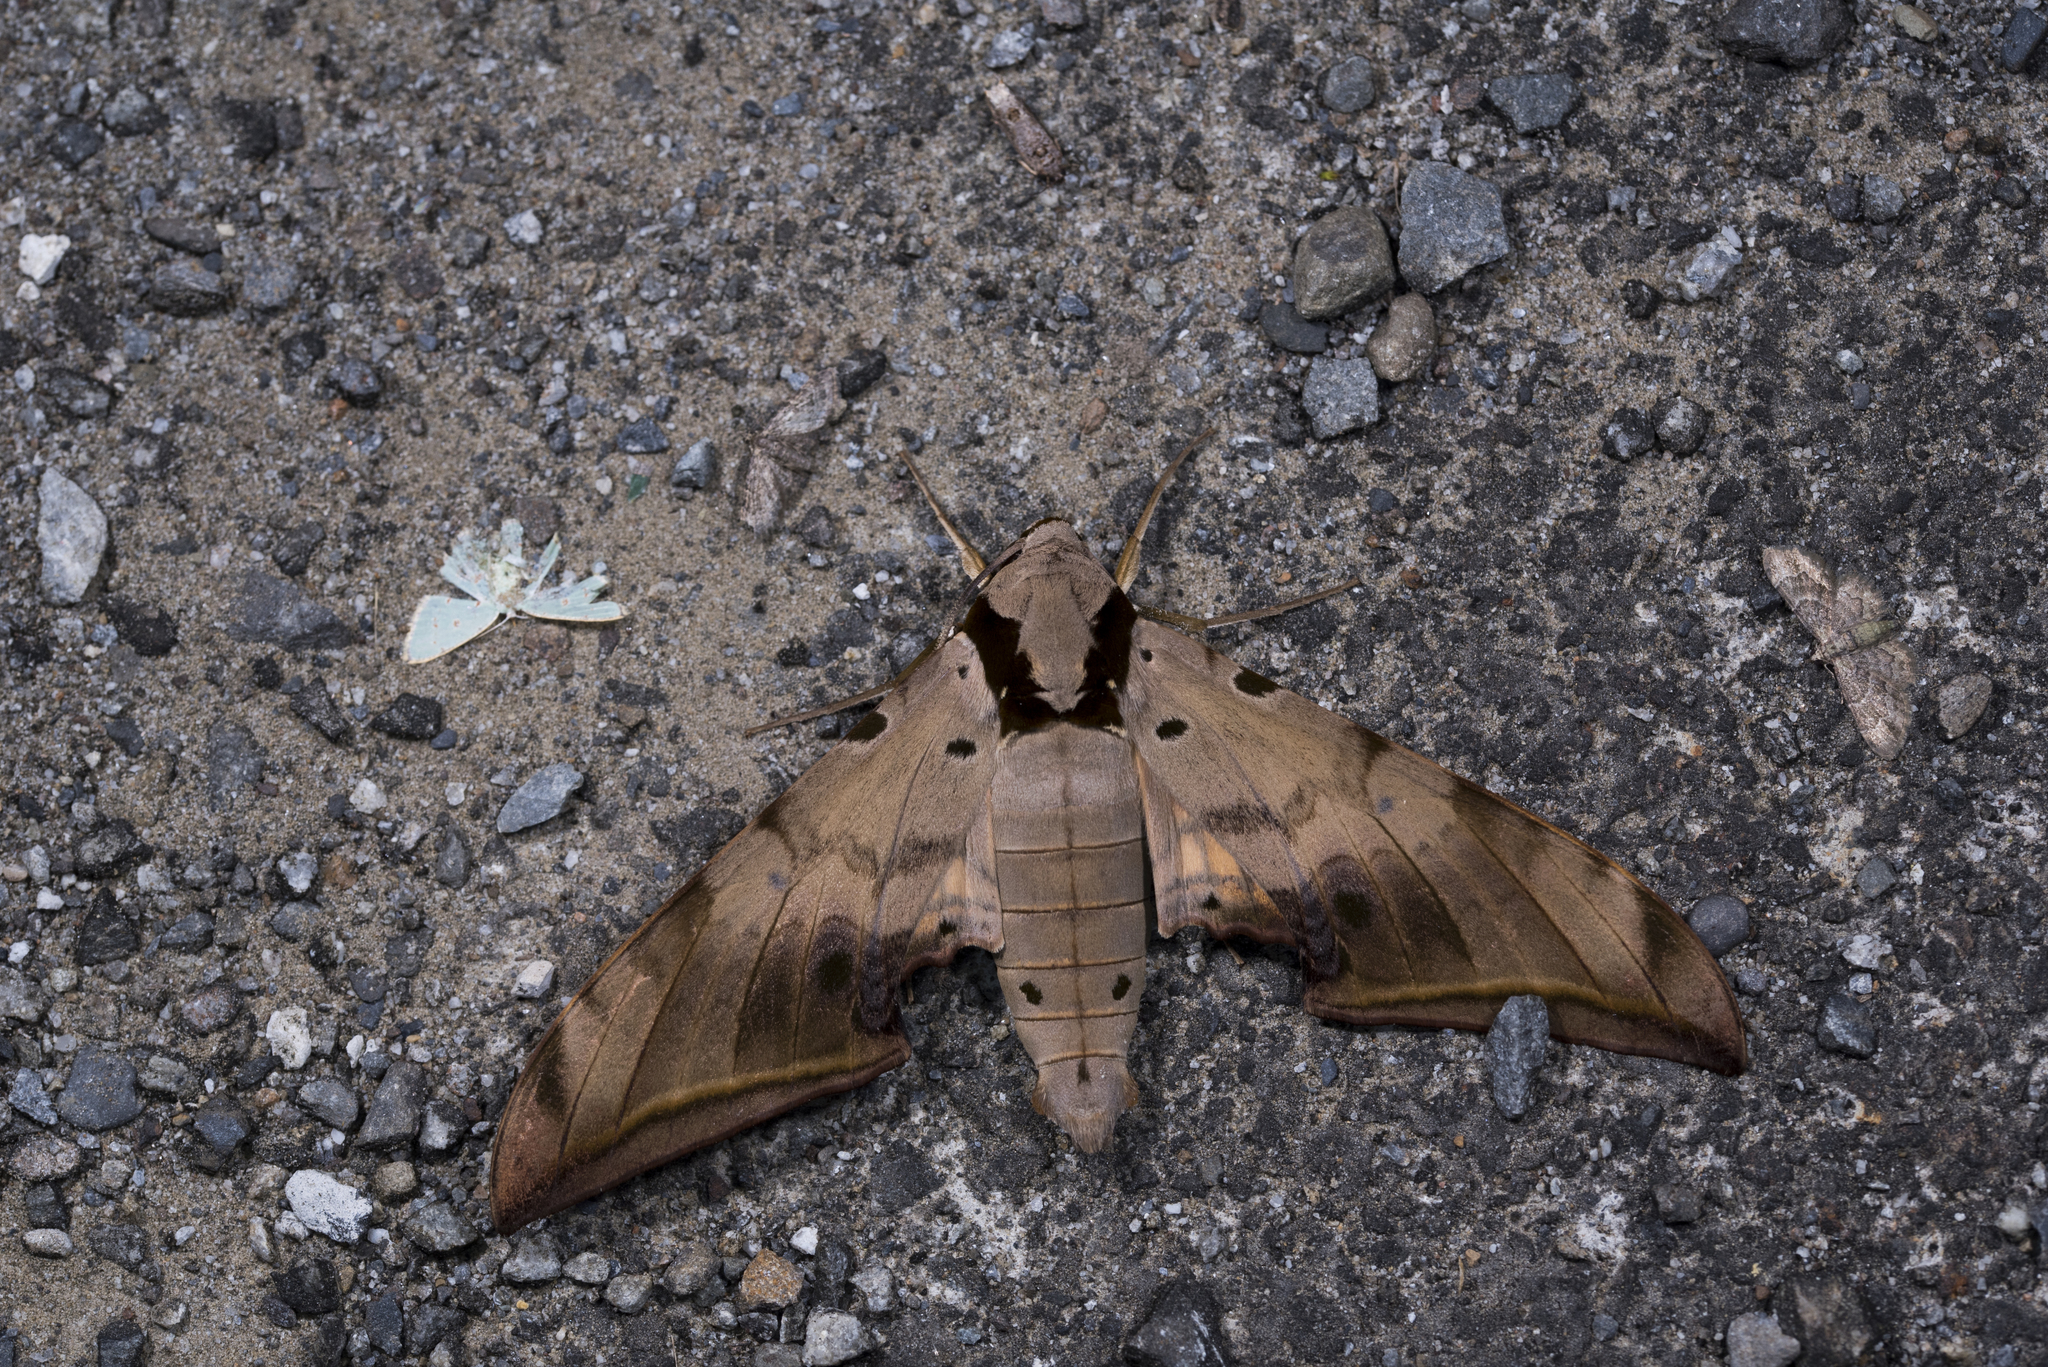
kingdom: Animalia
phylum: Arthropoda
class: Insecta
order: Lepidoptera
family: Sphingidae
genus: Ambulyx
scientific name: Ambulyx sericeipennis
